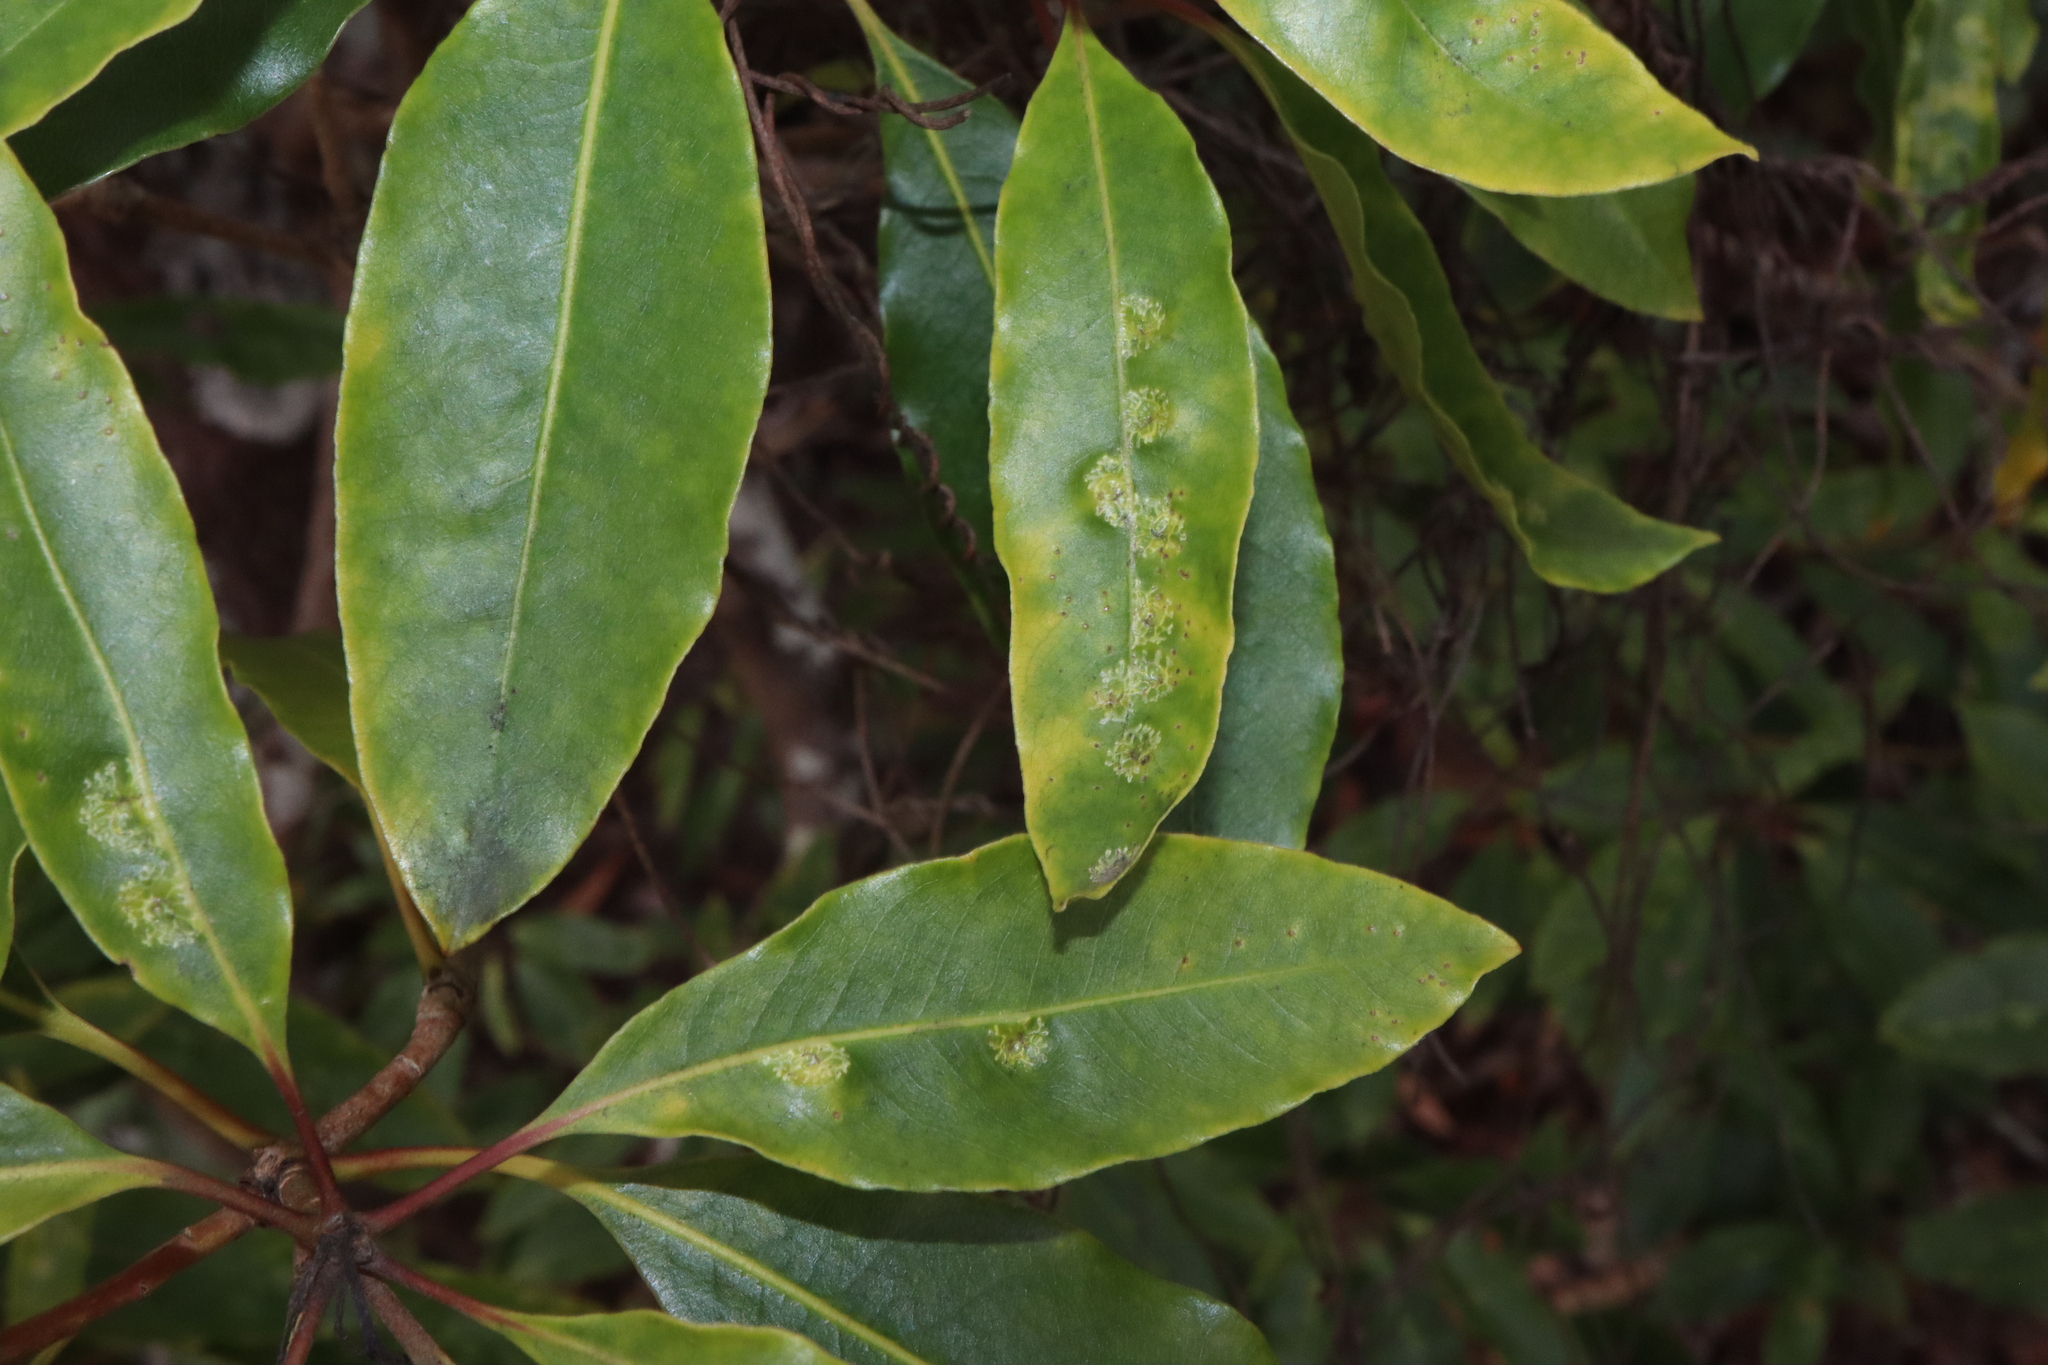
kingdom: Animalia
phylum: Arthropoda
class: Insecta
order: Diptera
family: Agromyzidae
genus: Phytoliriomyza
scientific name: Phytoliriomyza pittosporophylli
